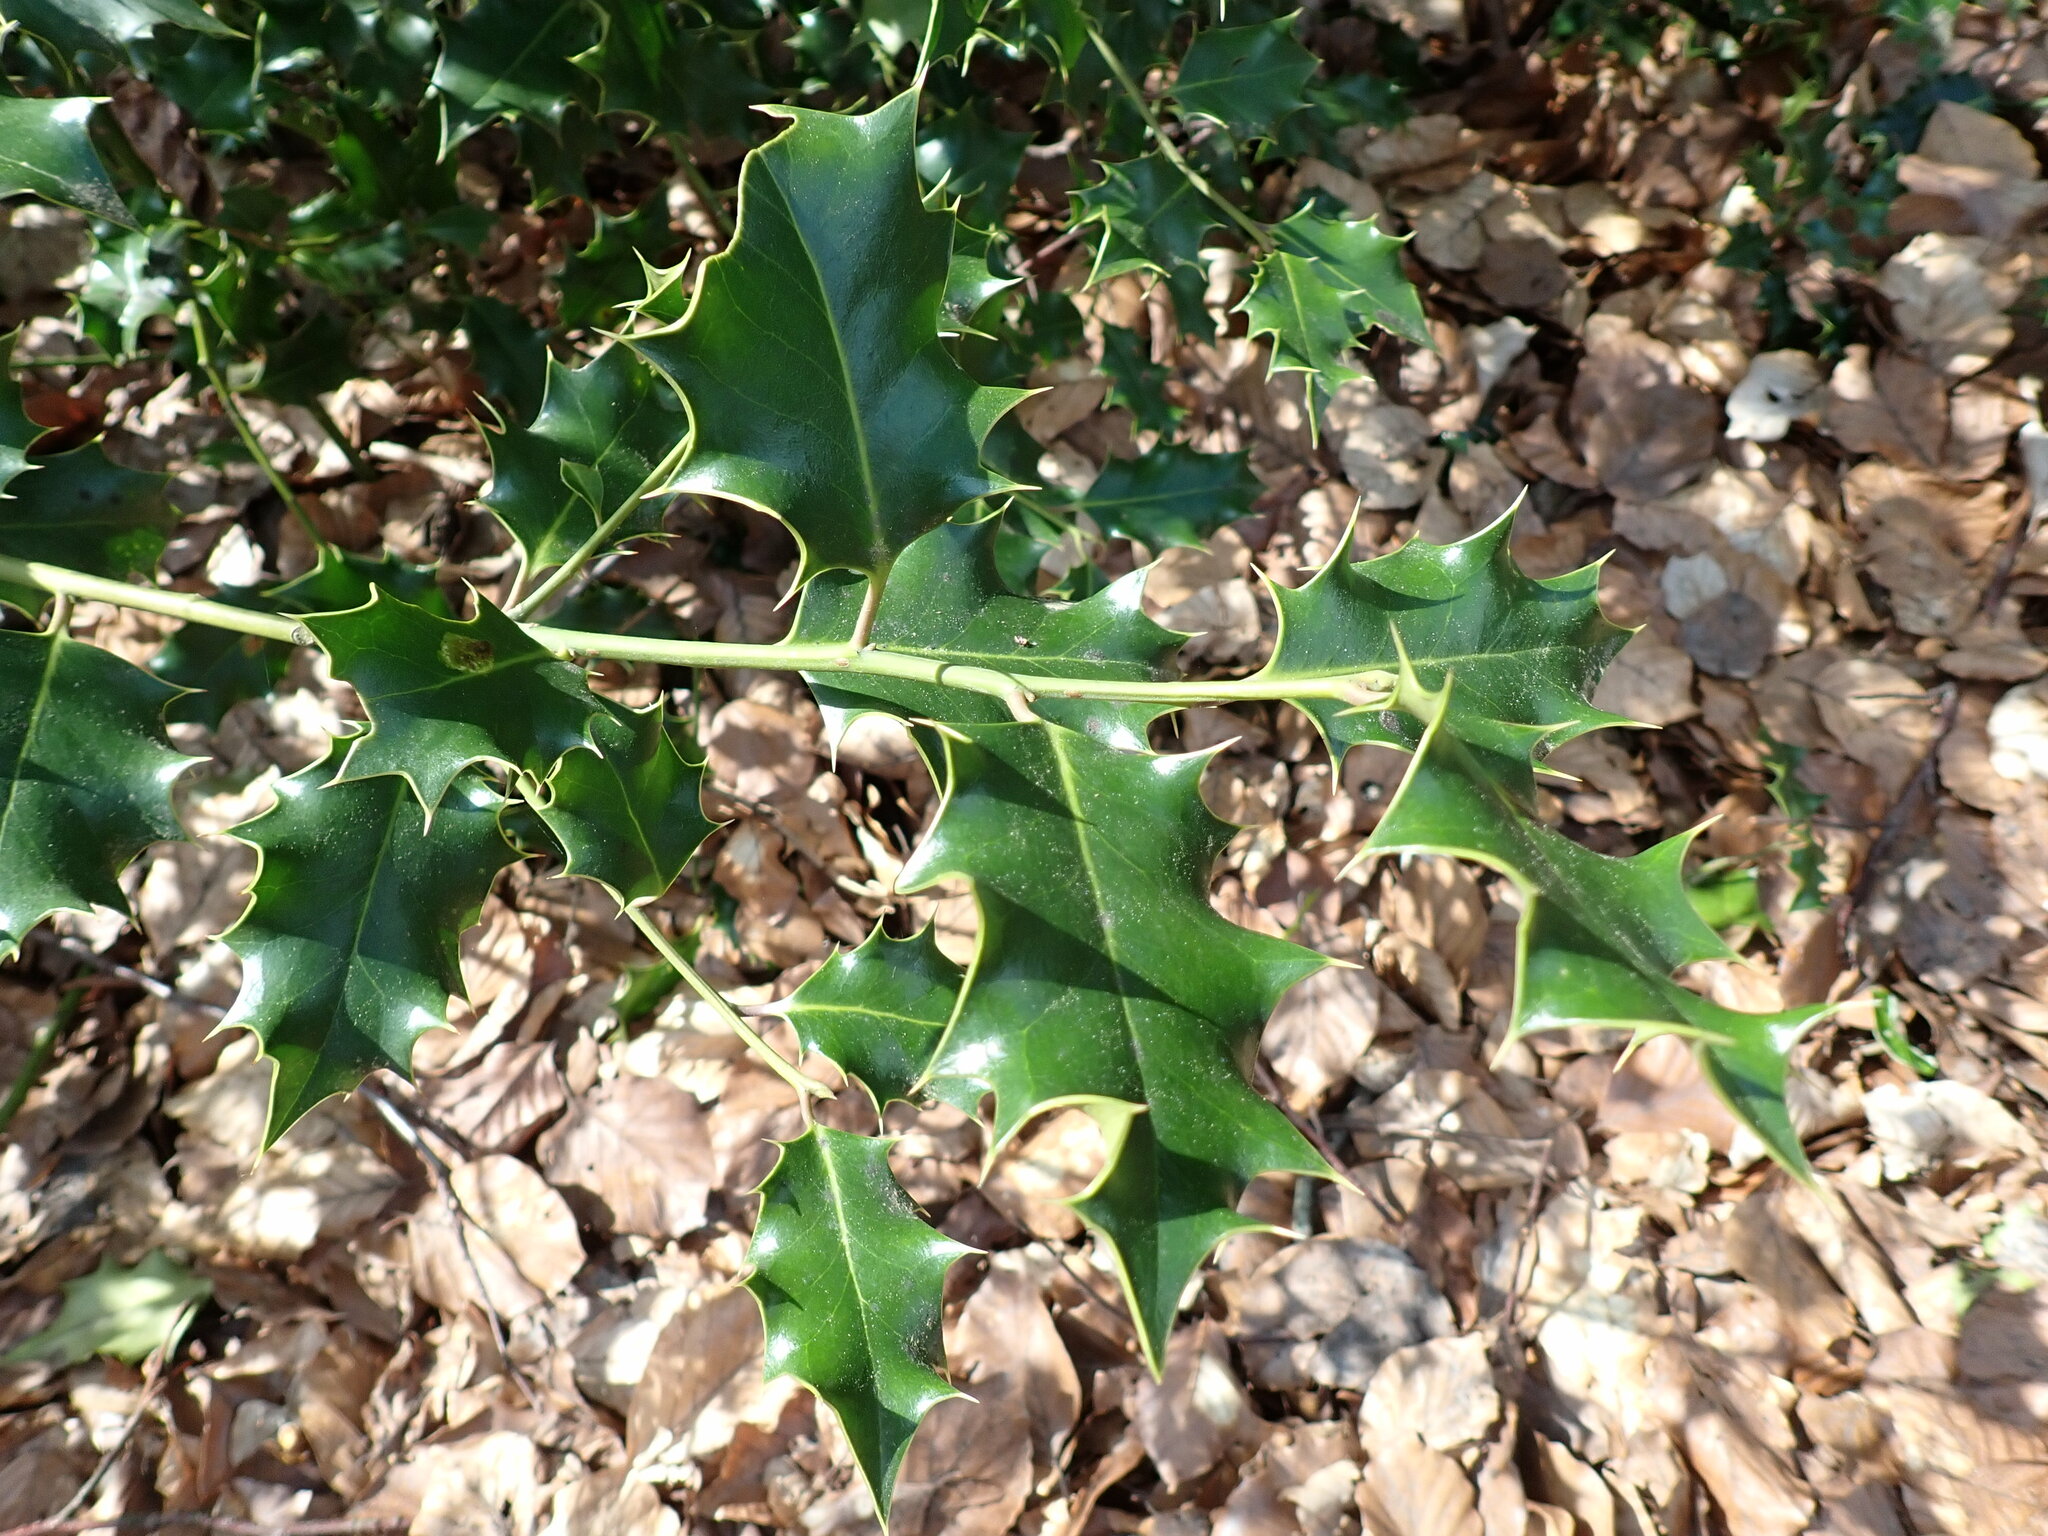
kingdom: Plantae
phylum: Tracheophyta
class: Magnoliopsida
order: Aquifoliales
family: Aquifoliaceae
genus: Ilex
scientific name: Ilex aquifolium
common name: English holly
